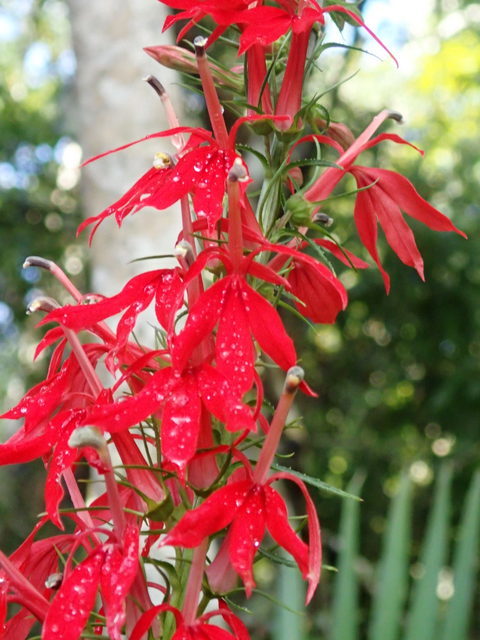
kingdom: Plantae
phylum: Tracheophyta
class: Magnoliopsida
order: Asterales
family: Campanulaceae
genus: Lobelia
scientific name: Lobelia cardinalis
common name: Cardinal flower
